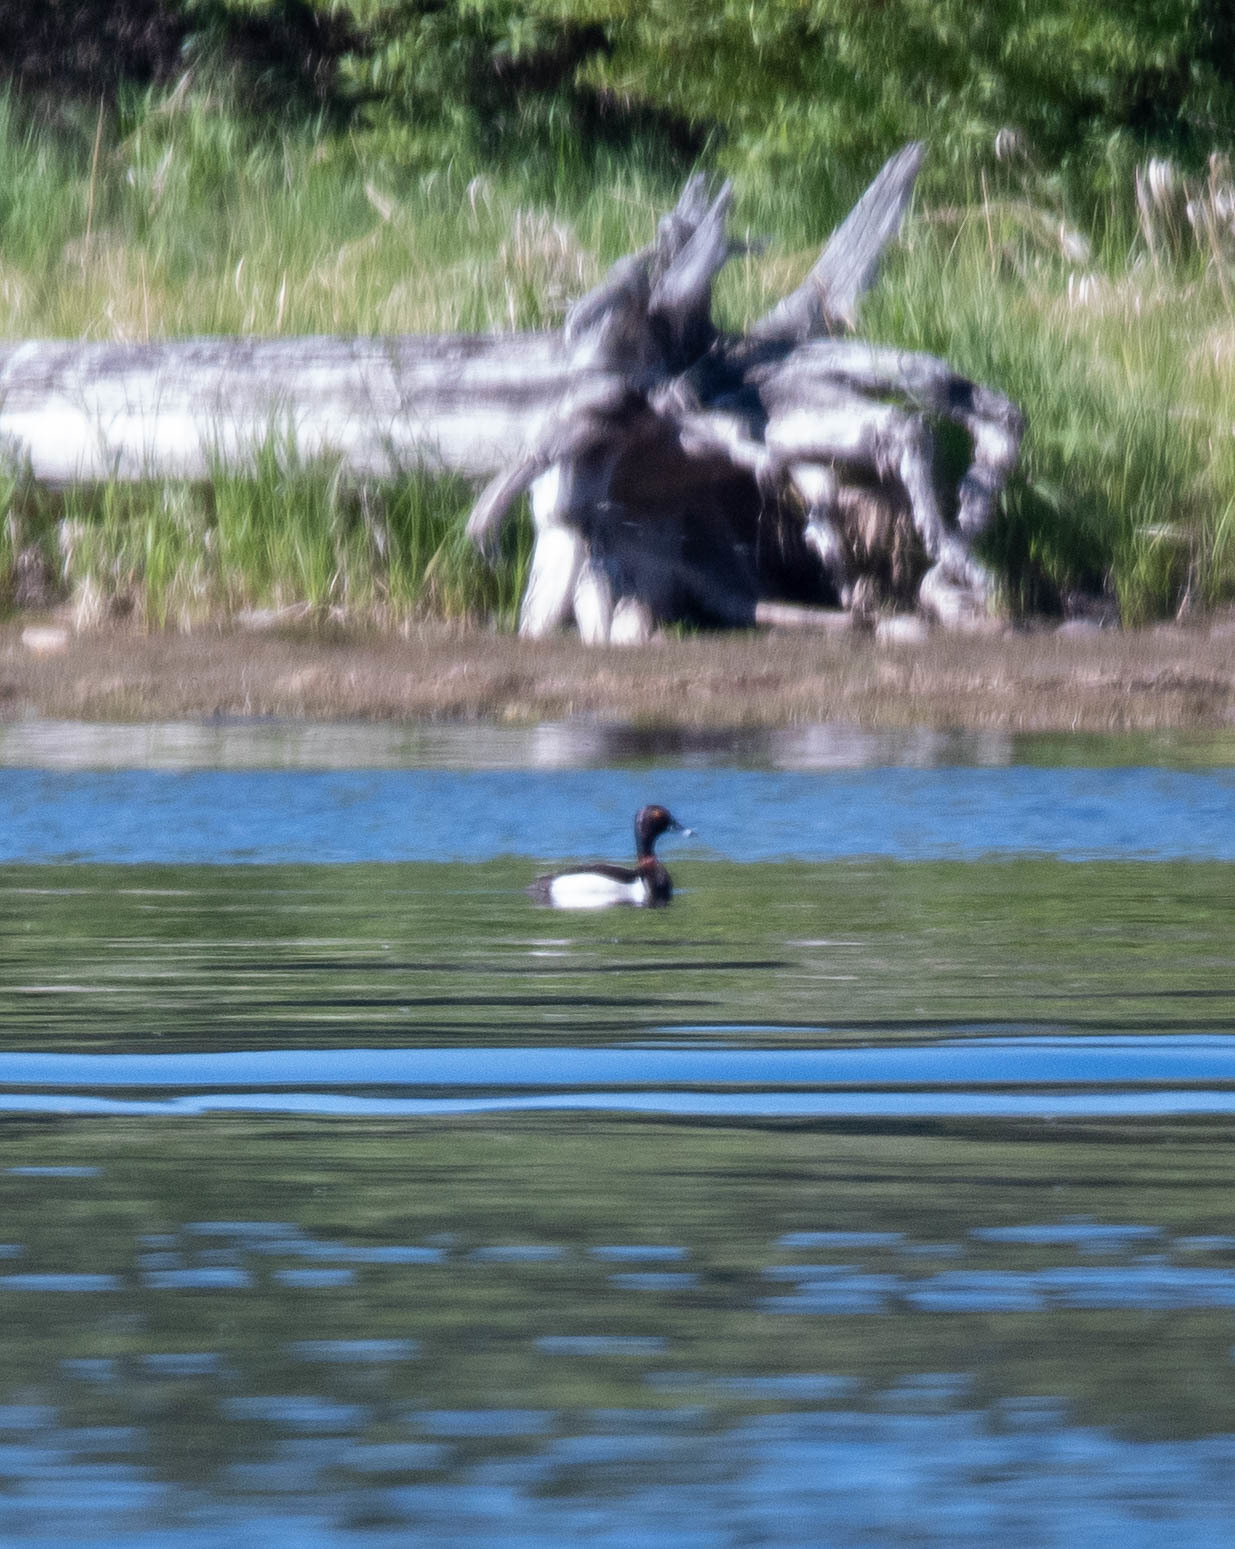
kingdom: Animalia
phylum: Chordata
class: Aves
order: Anseriformes
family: Anatidae
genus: Aythya
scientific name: Aythya collaris
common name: Ring-necked duck
